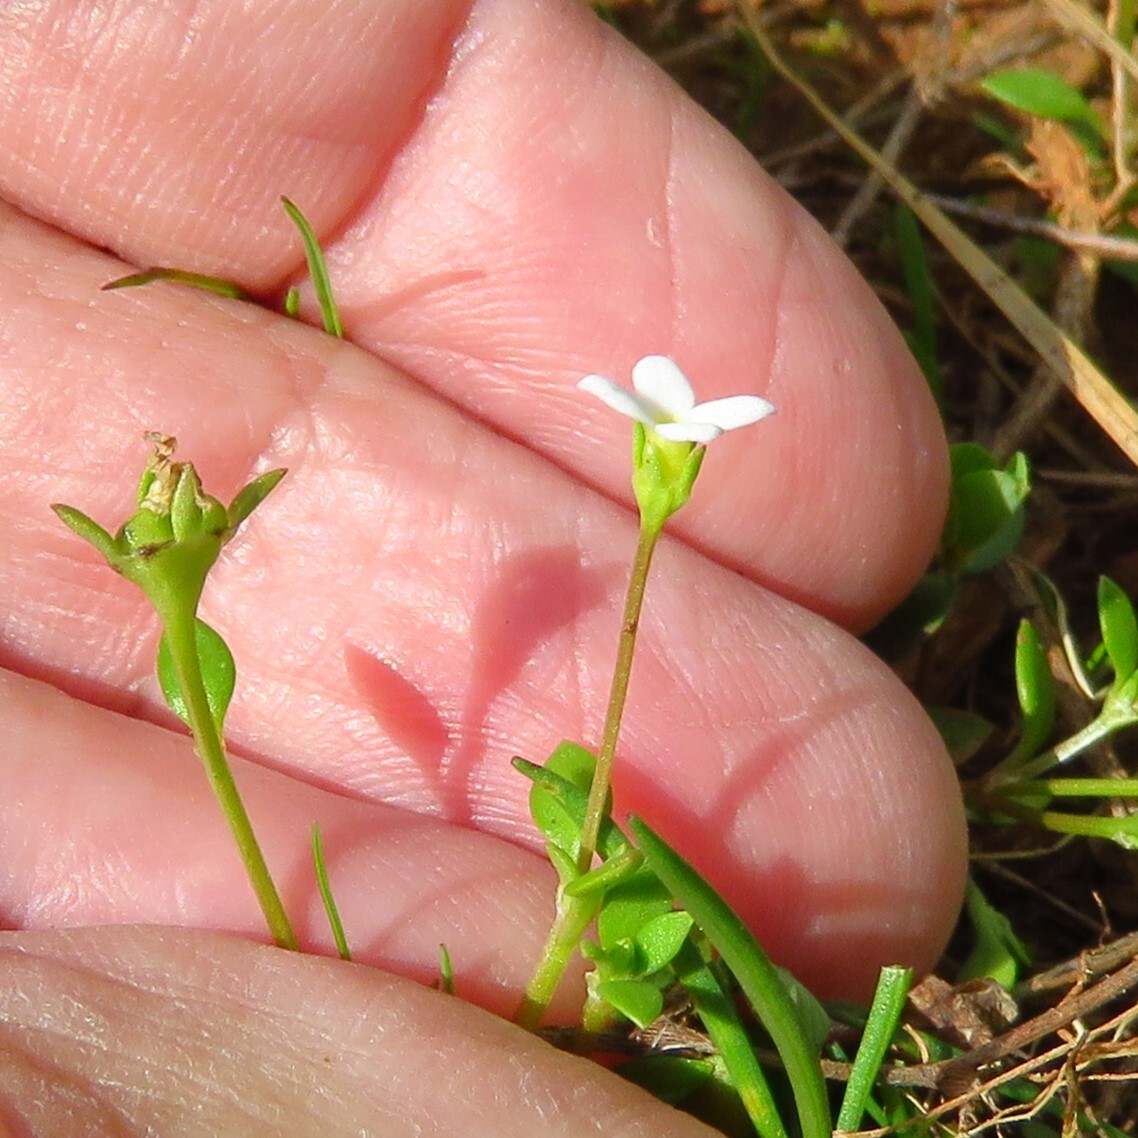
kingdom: Plantae
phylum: Tracheophyta
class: Magnoliopsida
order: Gentianales
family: Rubiaceae
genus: Houstonia
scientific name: Houstonia micrantha
